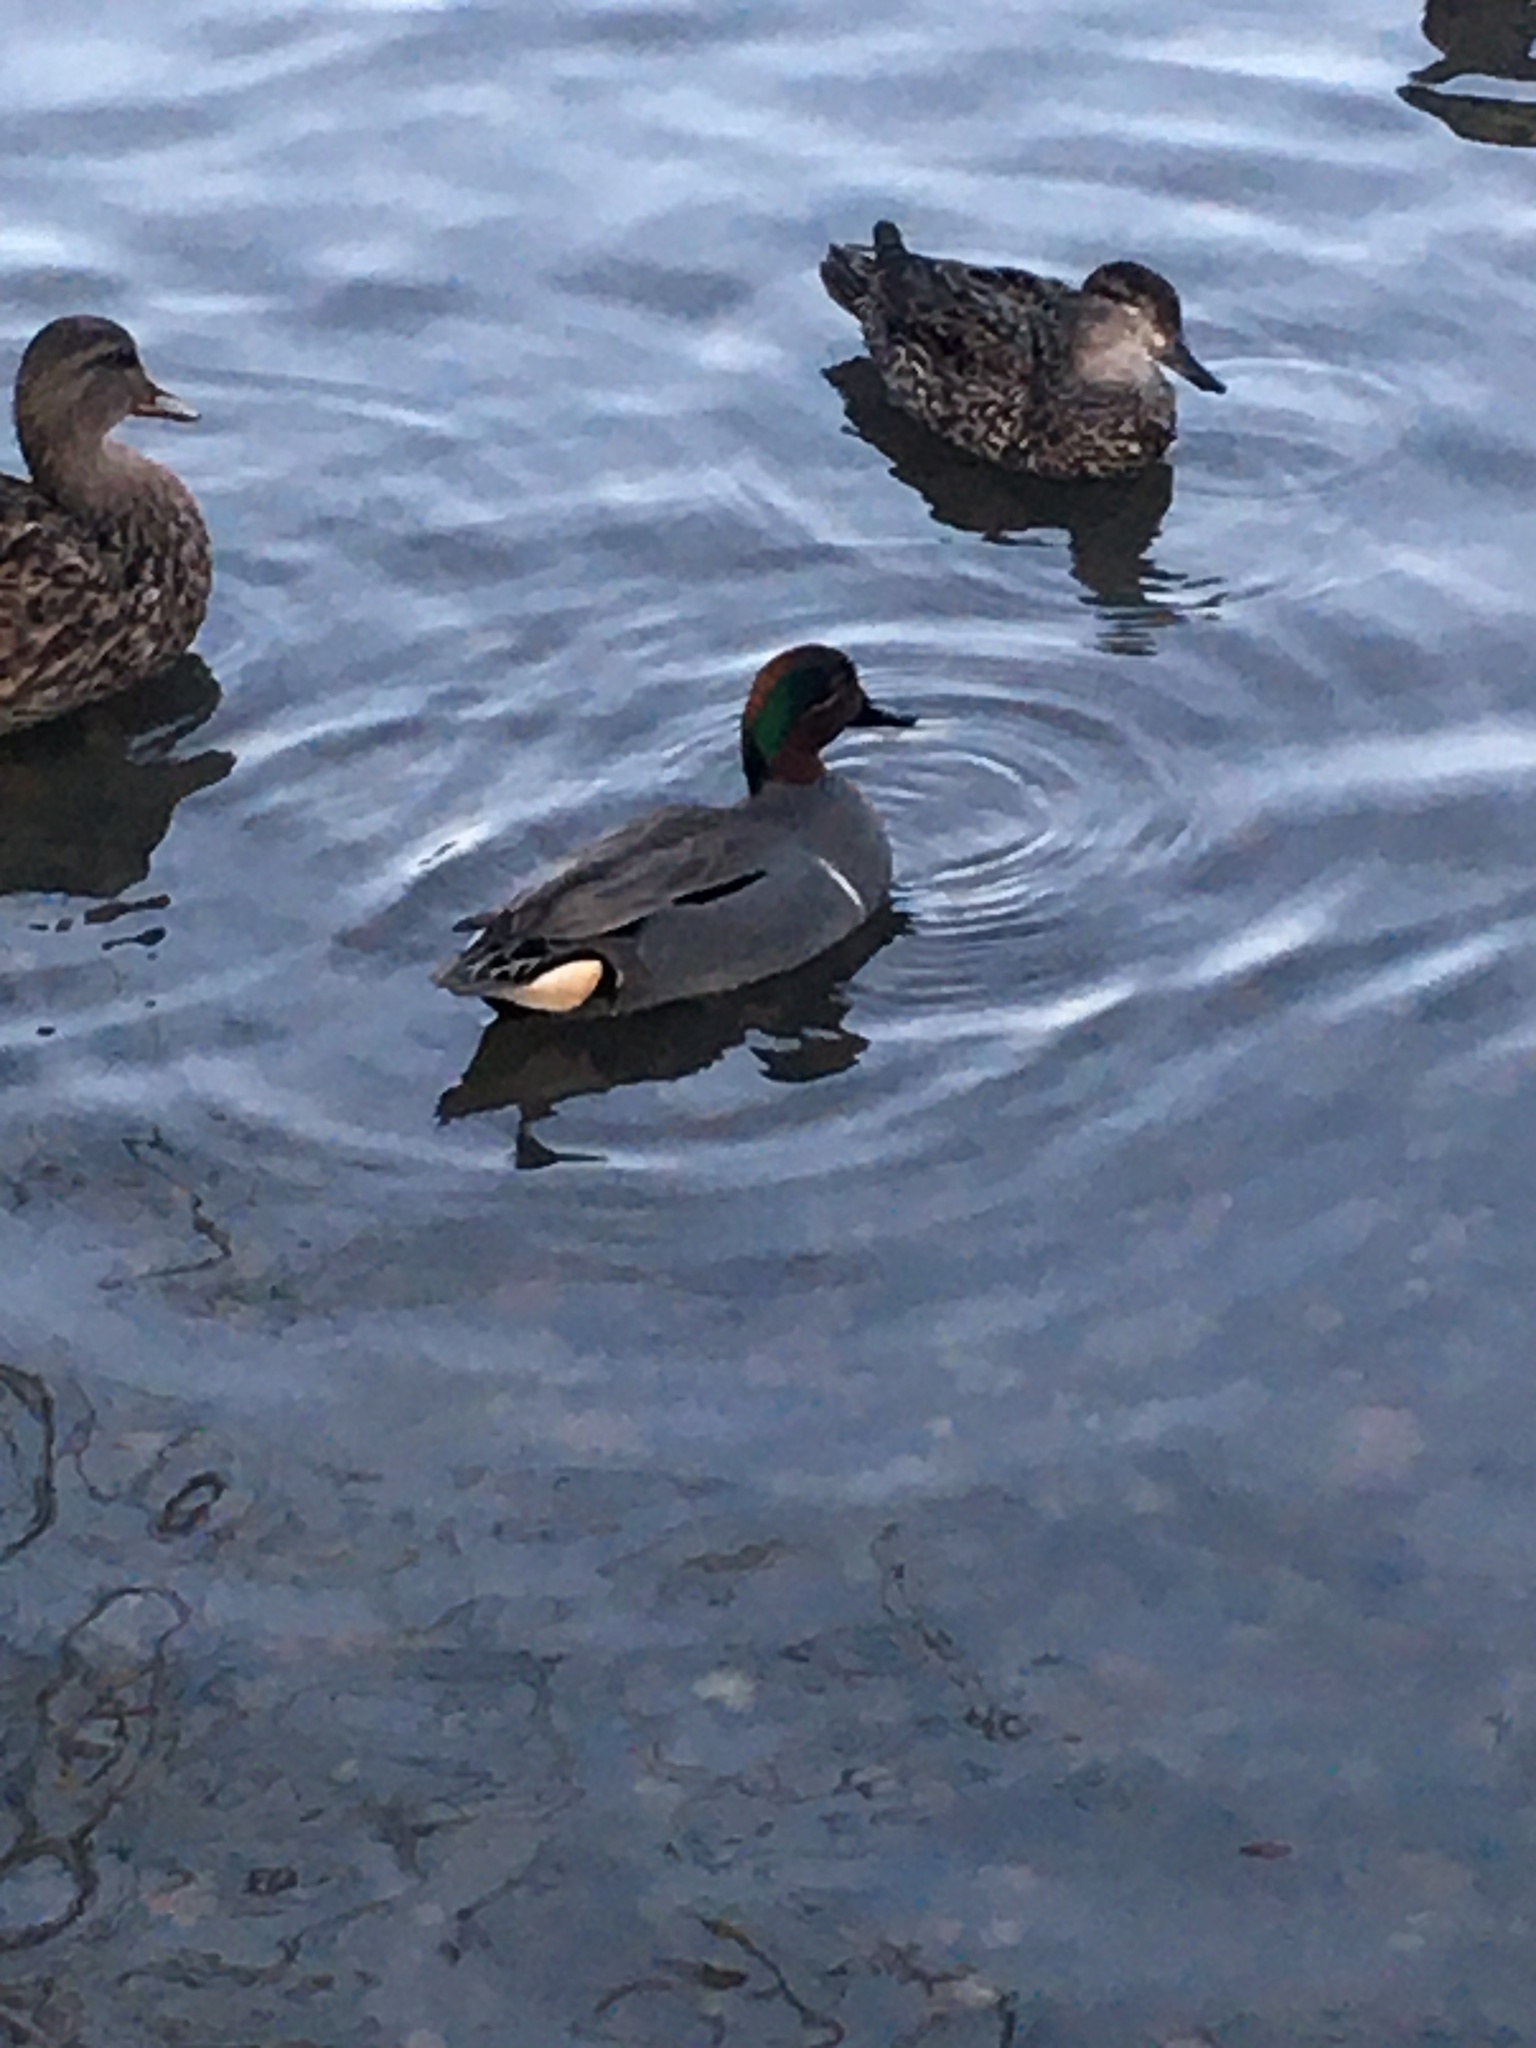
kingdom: Animalia
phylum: Chordata
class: Aves
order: Anseriformes
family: Anatidae
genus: Anas
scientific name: Anas carolinensis
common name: Green-winged teal
